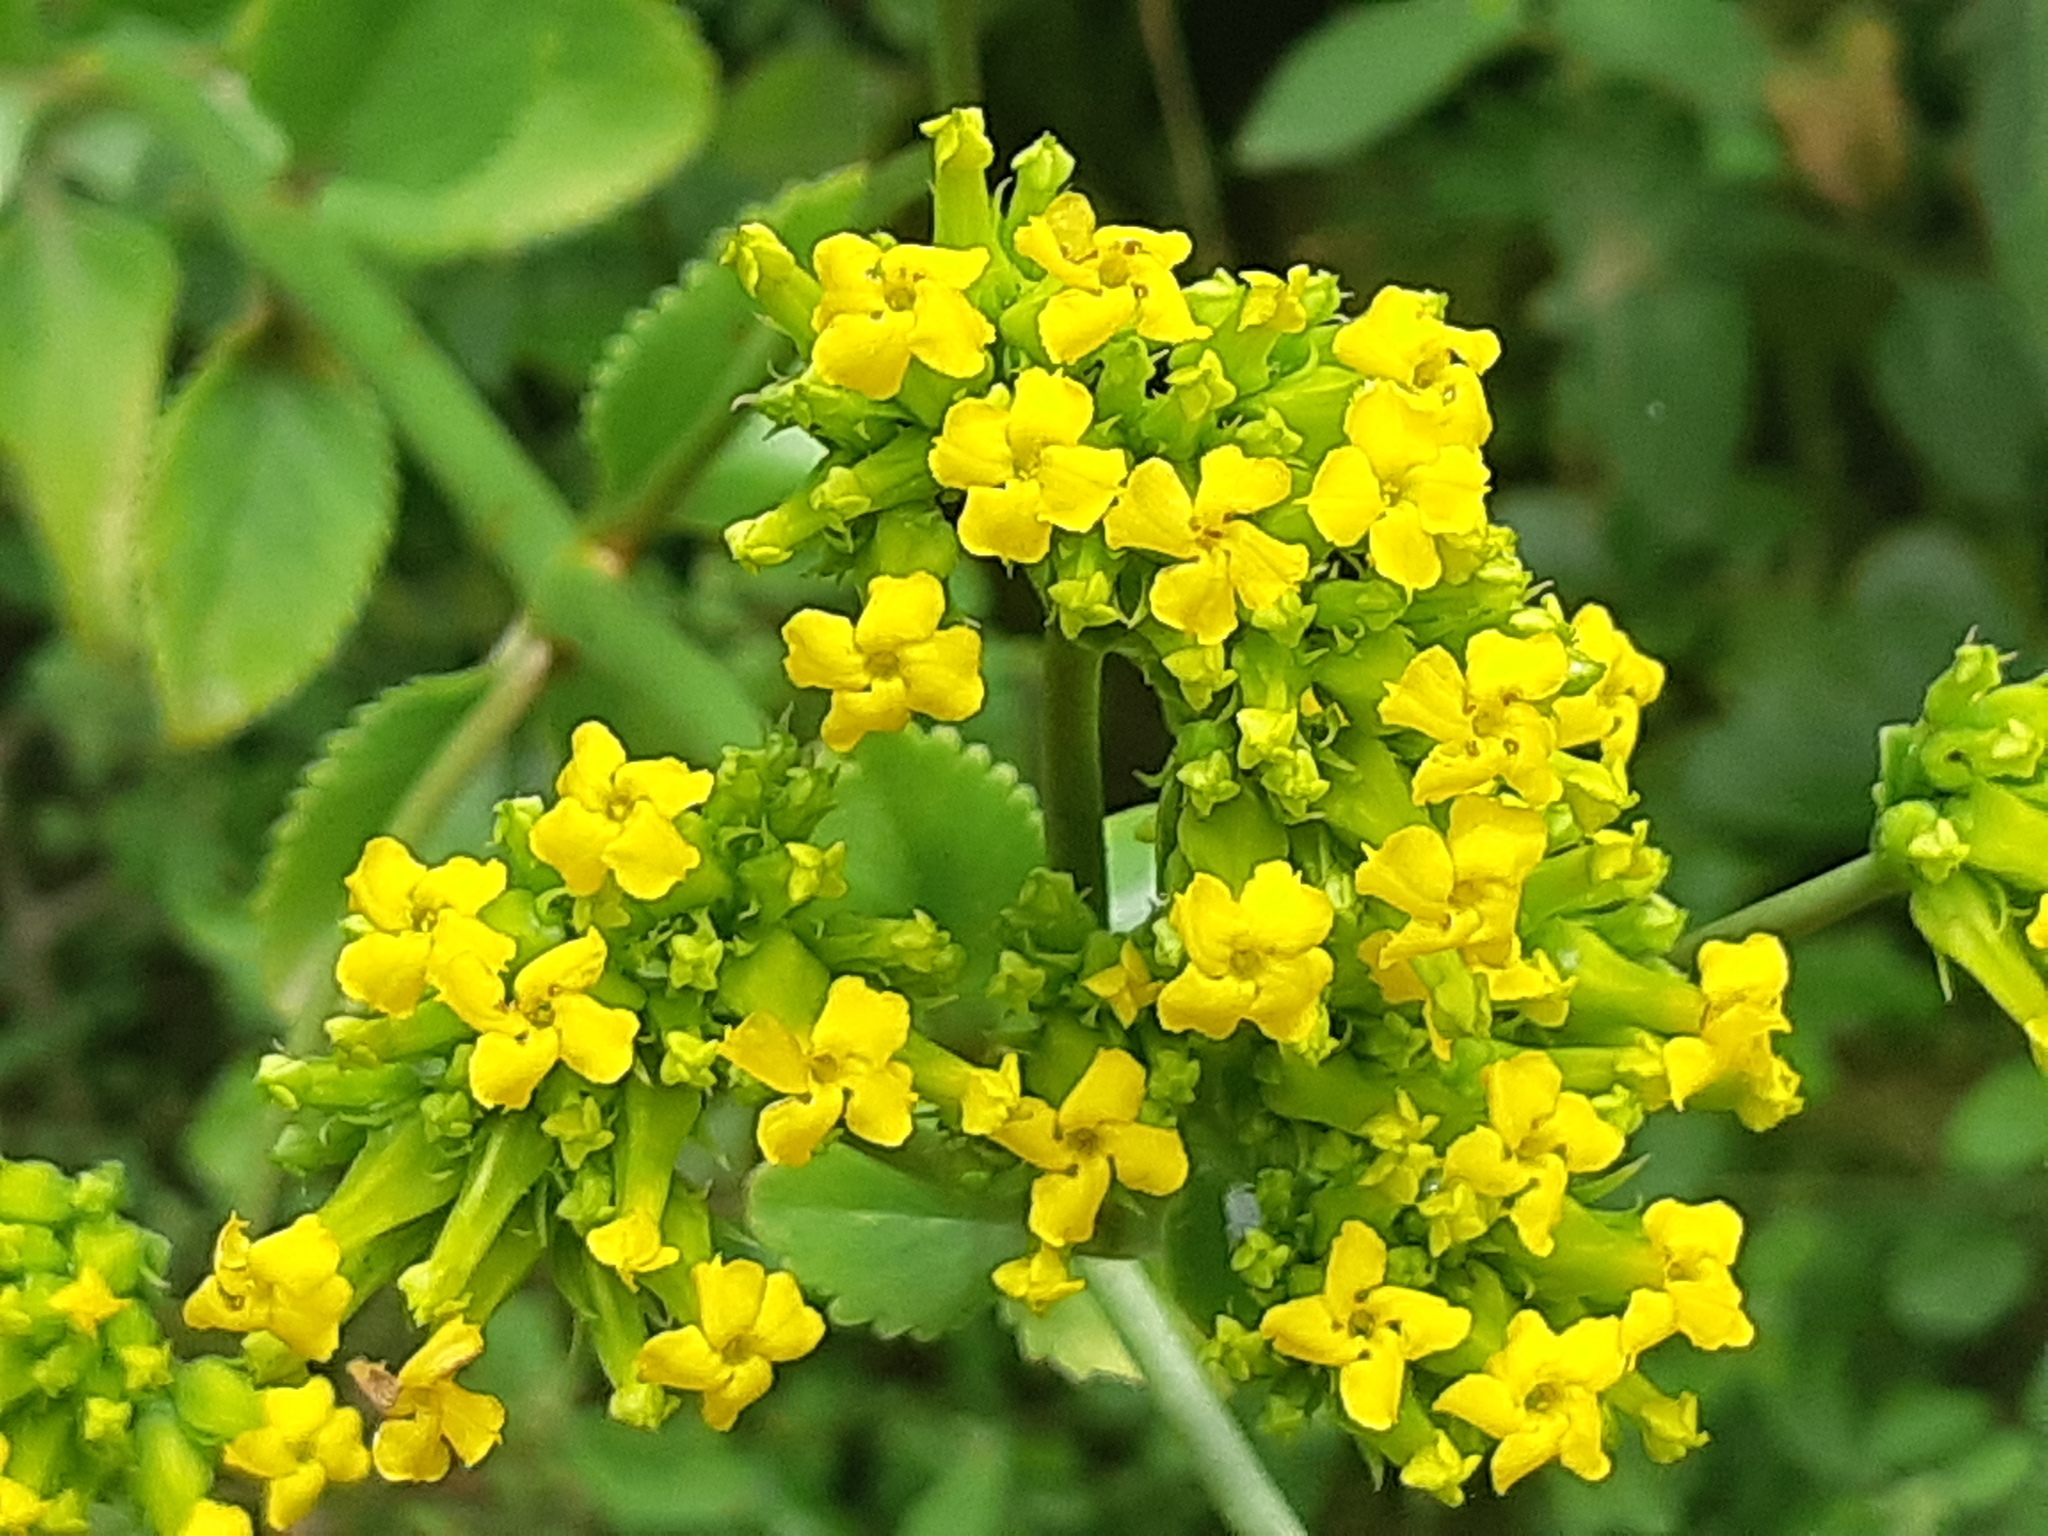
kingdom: Plantae
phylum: Tracheophyta
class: Magnoliopsida
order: Saxifragales
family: Crassulaceae
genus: Kalanchoe
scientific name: Kalanchoe densiflora
